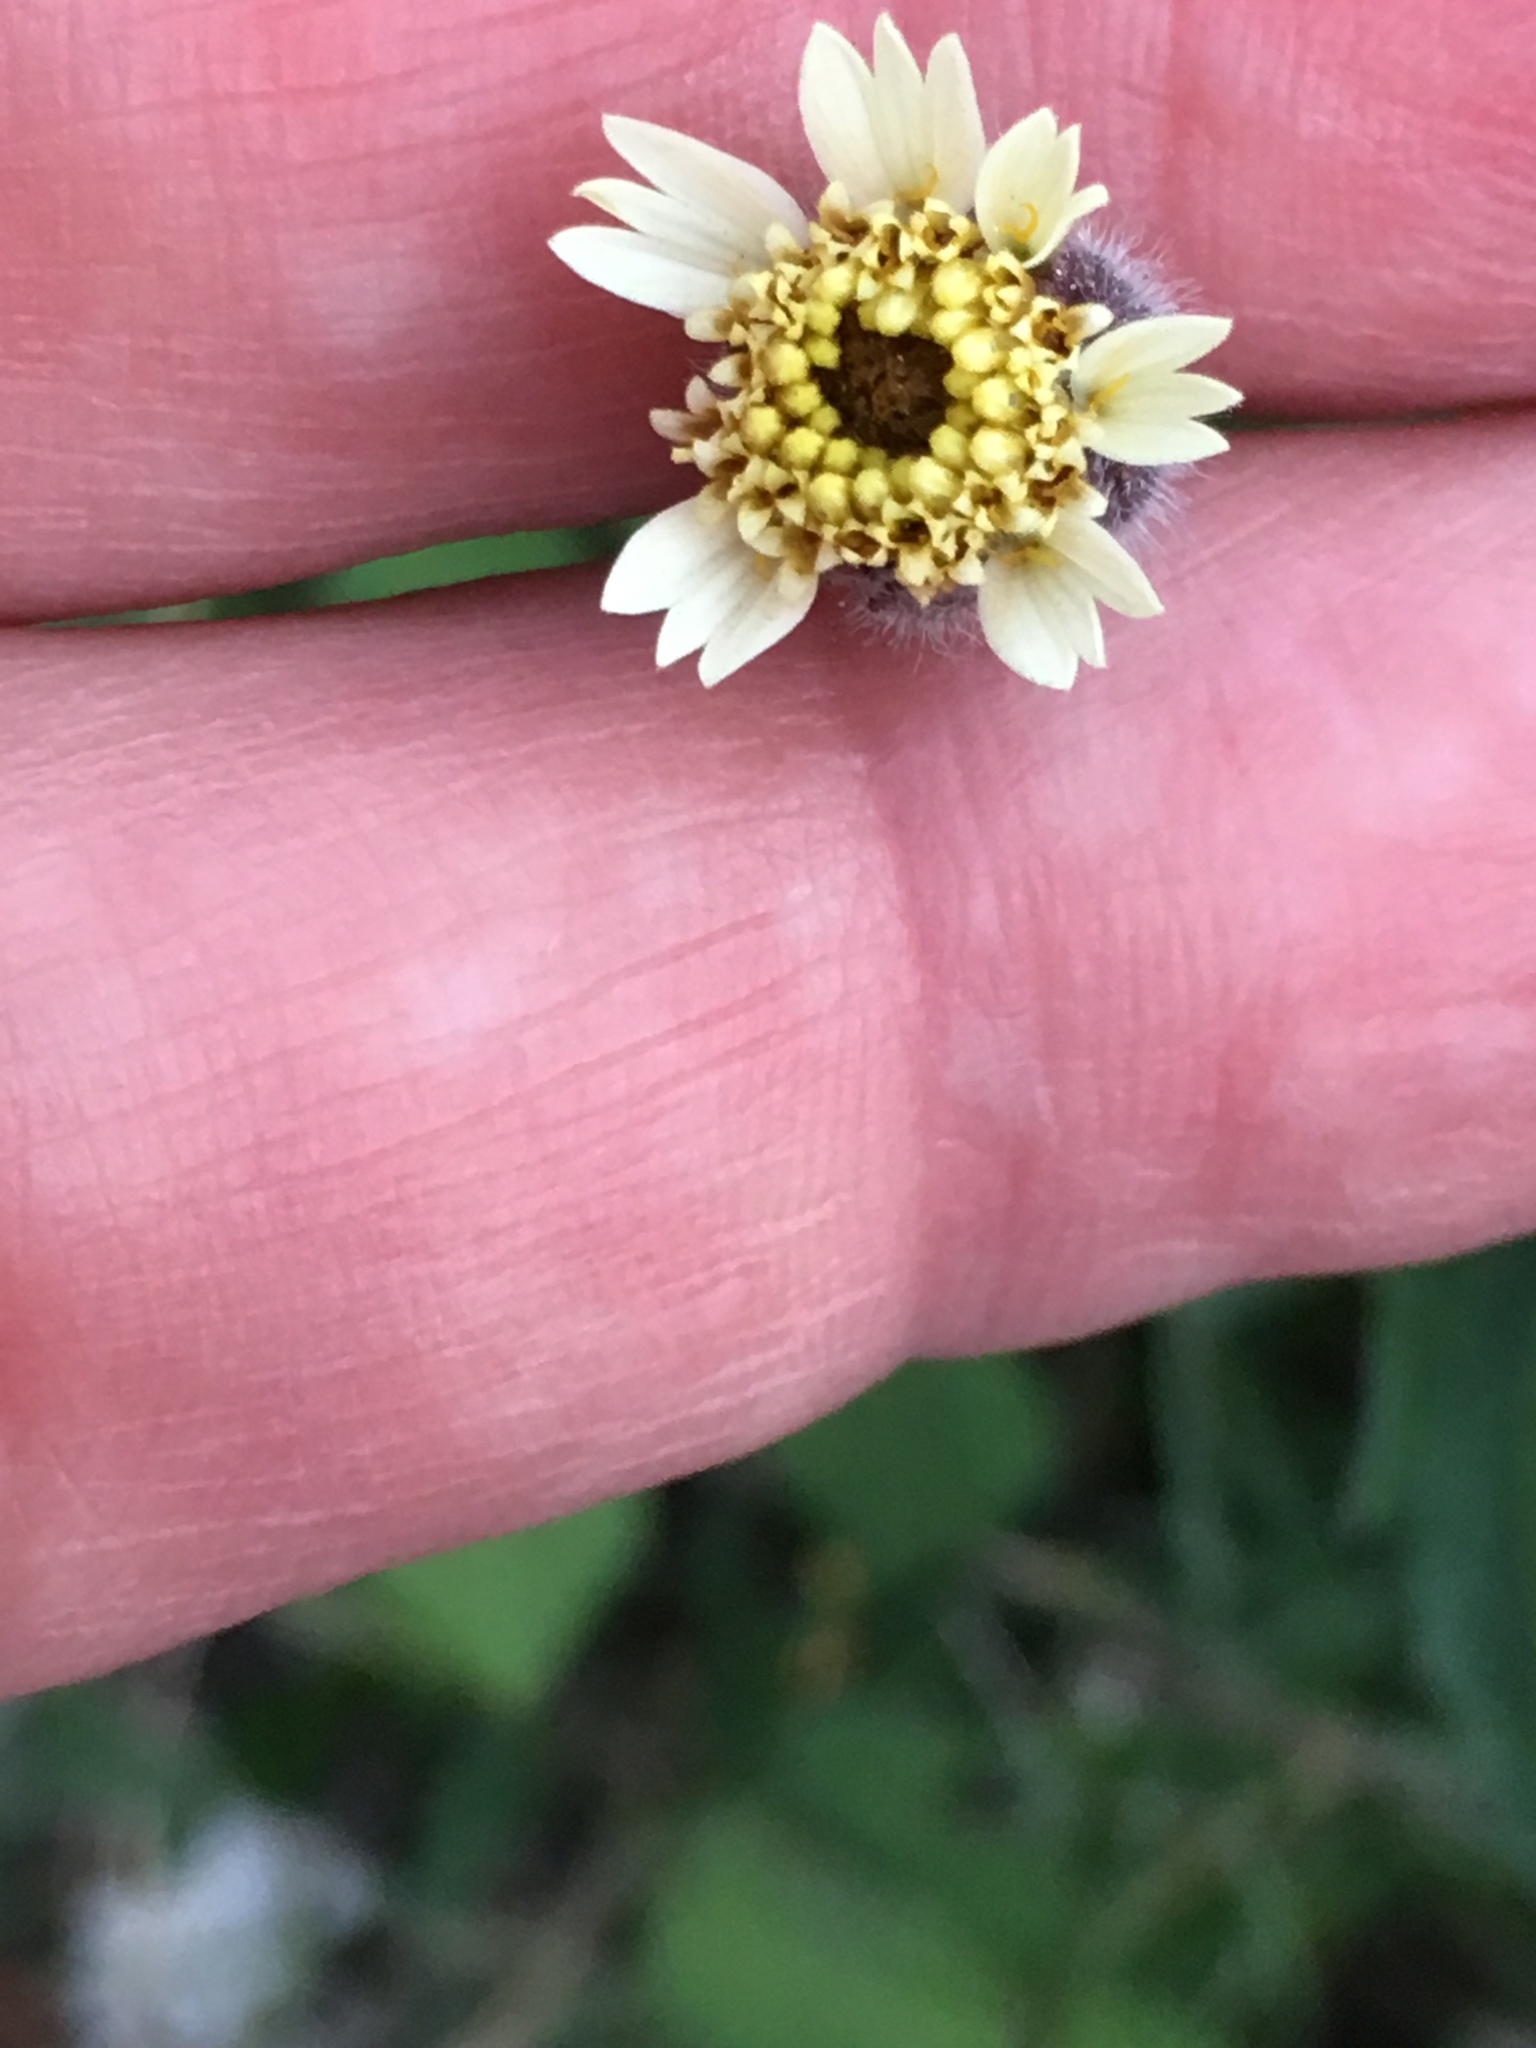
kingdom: Plantae
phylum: Tracheophyta
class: Magnoliopsida
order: Asterales
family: Asteraceae
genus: Tridax
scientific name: Tridax procumbens
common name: Coatbuttons
